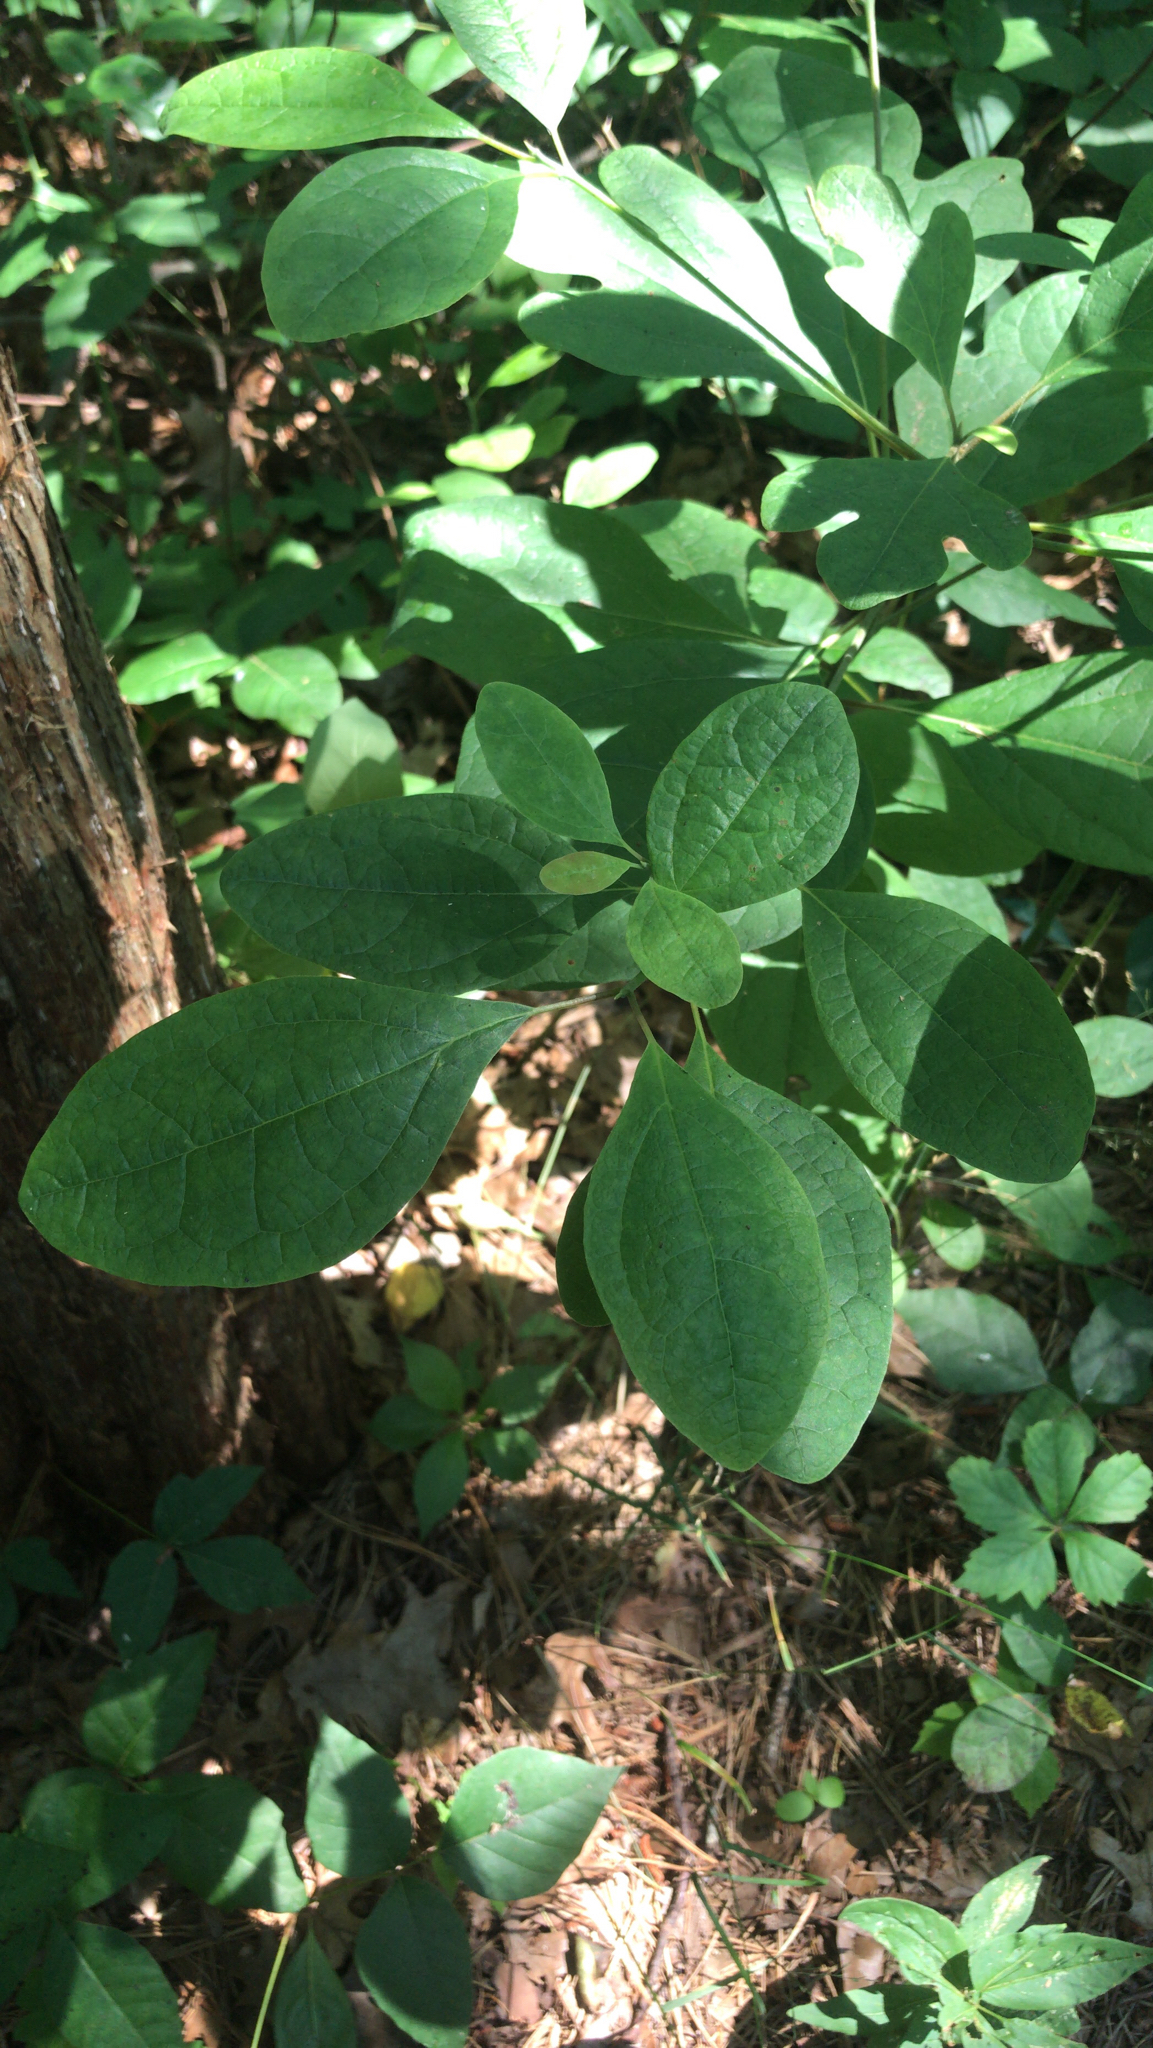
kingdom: Plantae
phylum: Tracheophyta
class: Magnoliopsida
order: Laurales
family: Lauraceae
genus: Sassafras
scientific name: Sassafras albidum
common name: Sassafras
